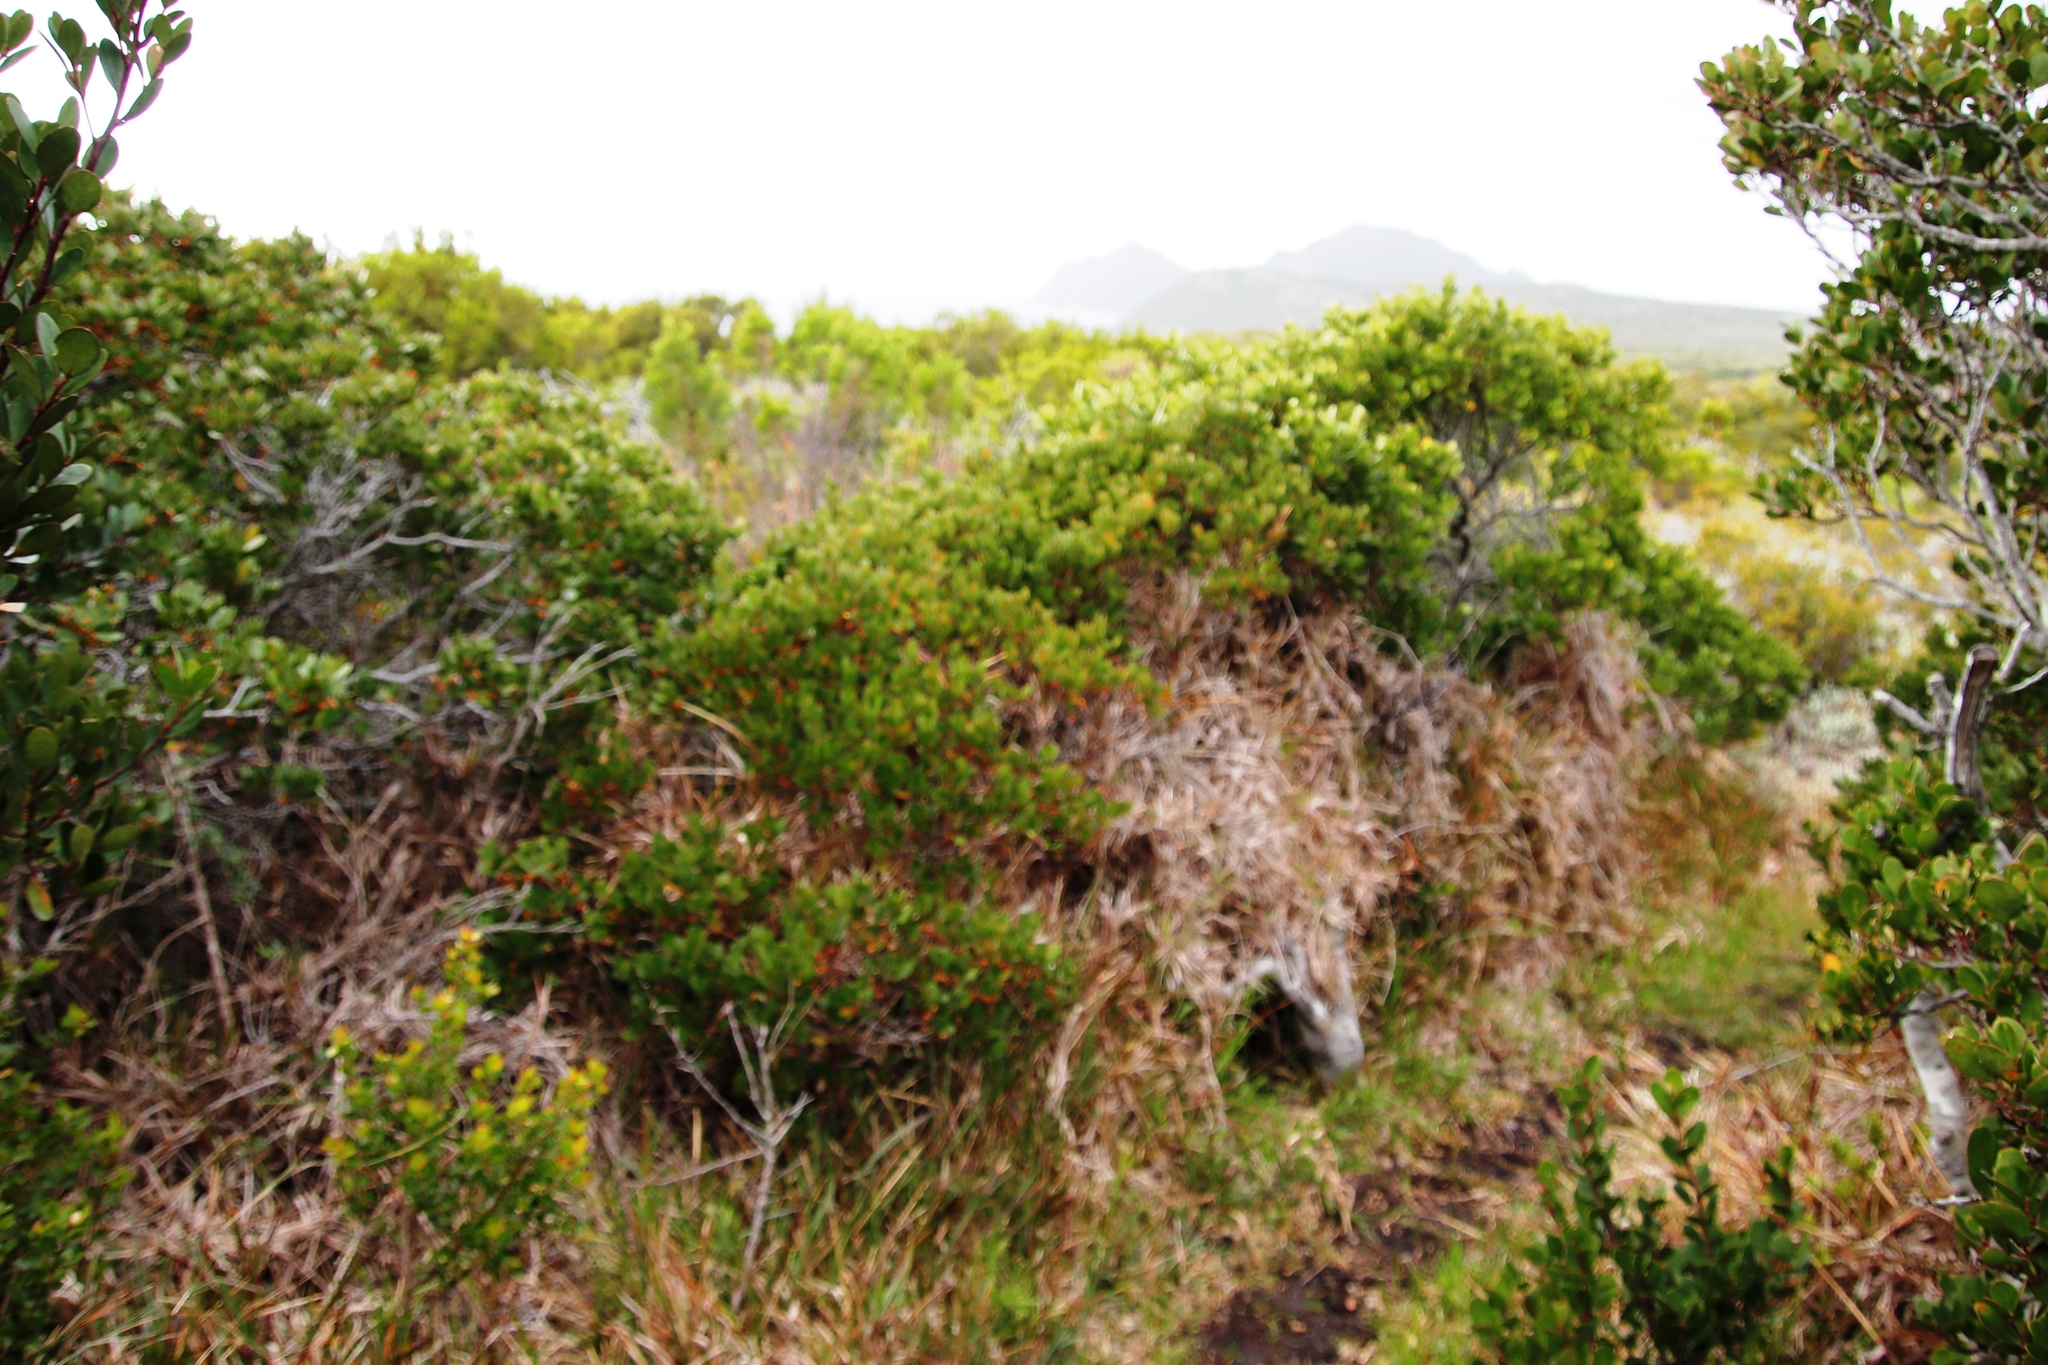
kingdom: Plantae
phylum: Tracheophyta
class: Magnoliopsida
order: Celastrales
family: Celastraceae
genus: Pterocelastrus
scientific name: Pterocelastrus tricuspidatus
